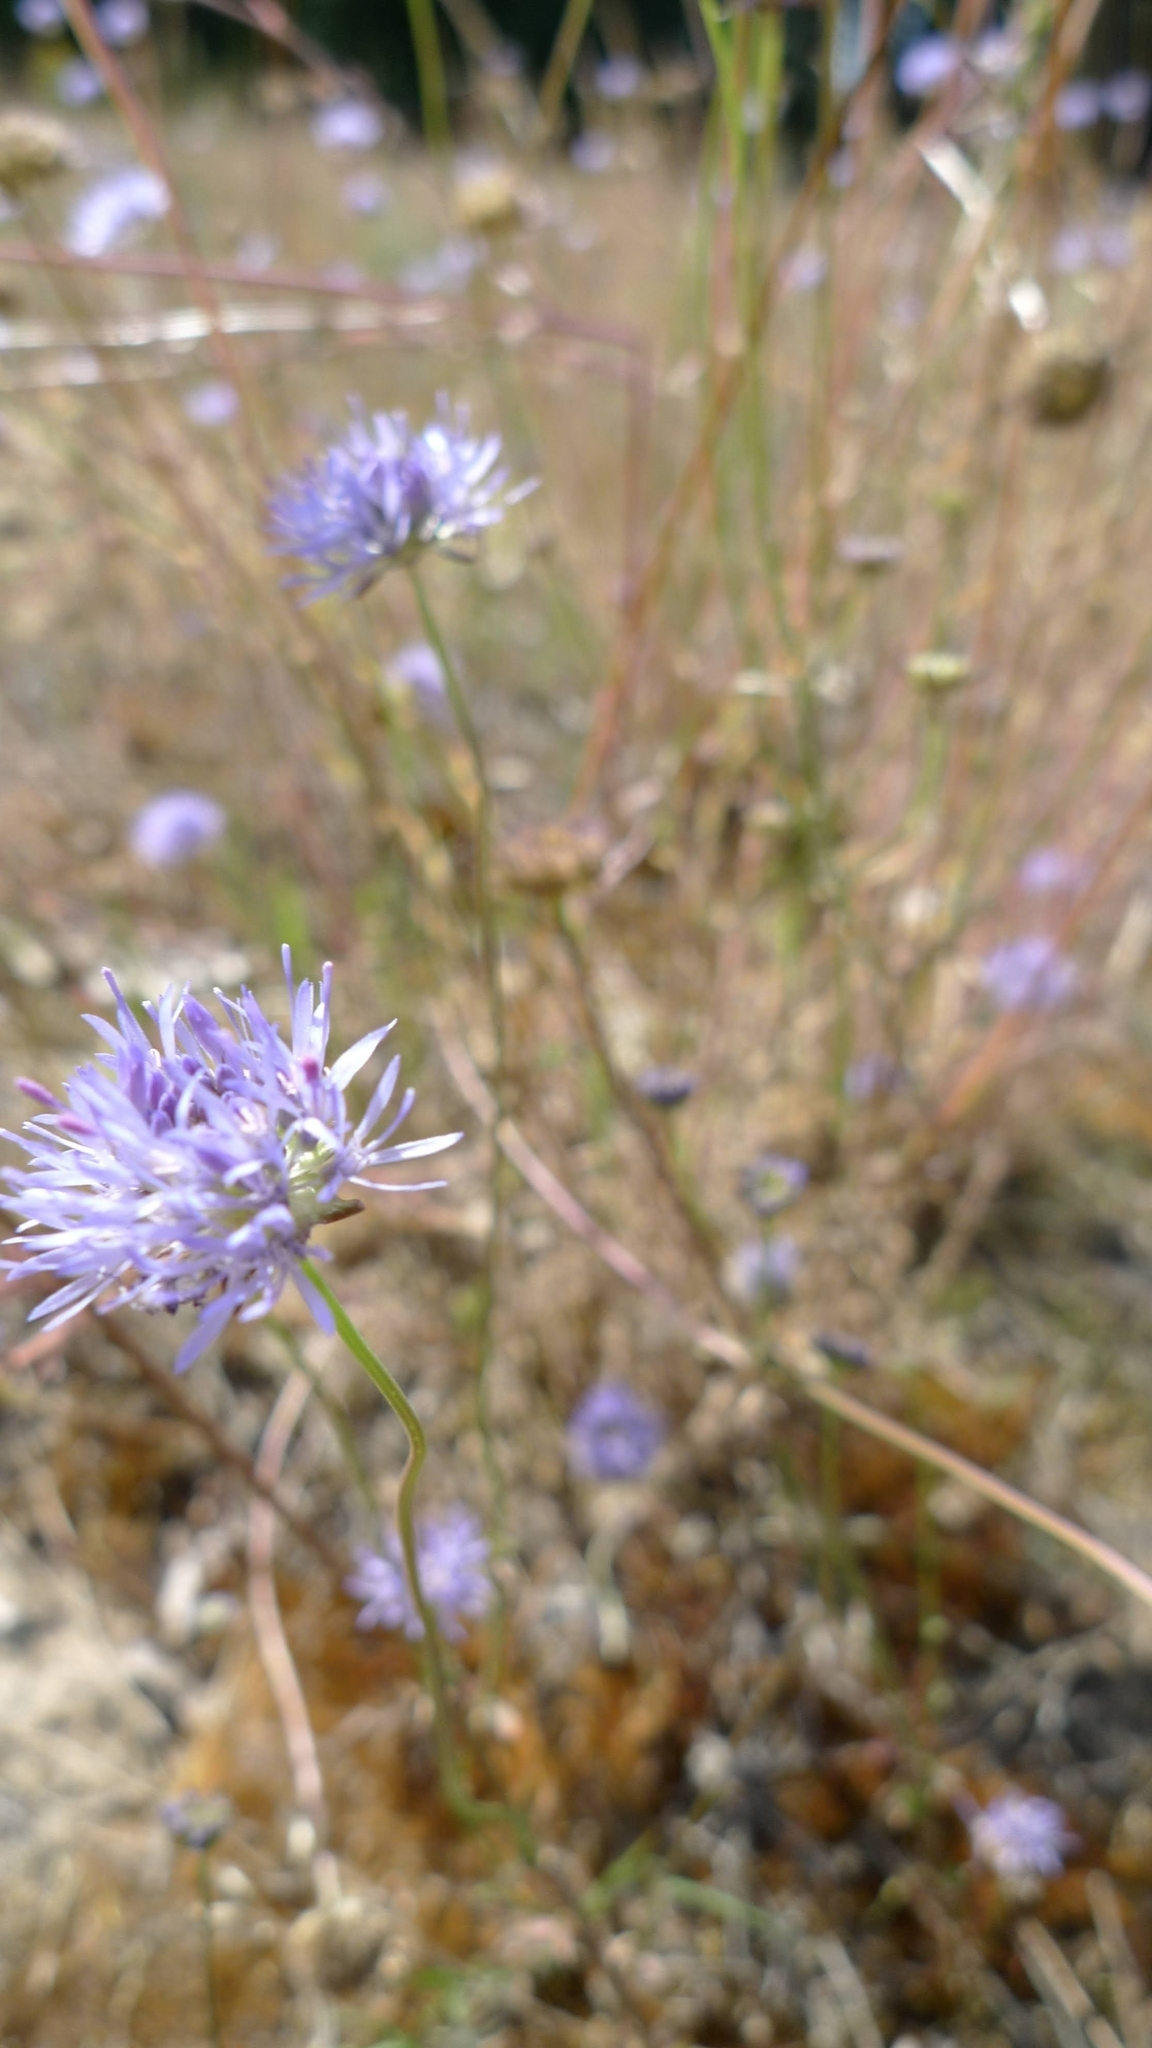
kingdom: Plantae
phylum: Tracheophyta
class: Magnoliopsida
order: Asterales
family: Campanulaceae
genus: Jasione
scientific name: Jasione montana
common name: Sheep's-bit
